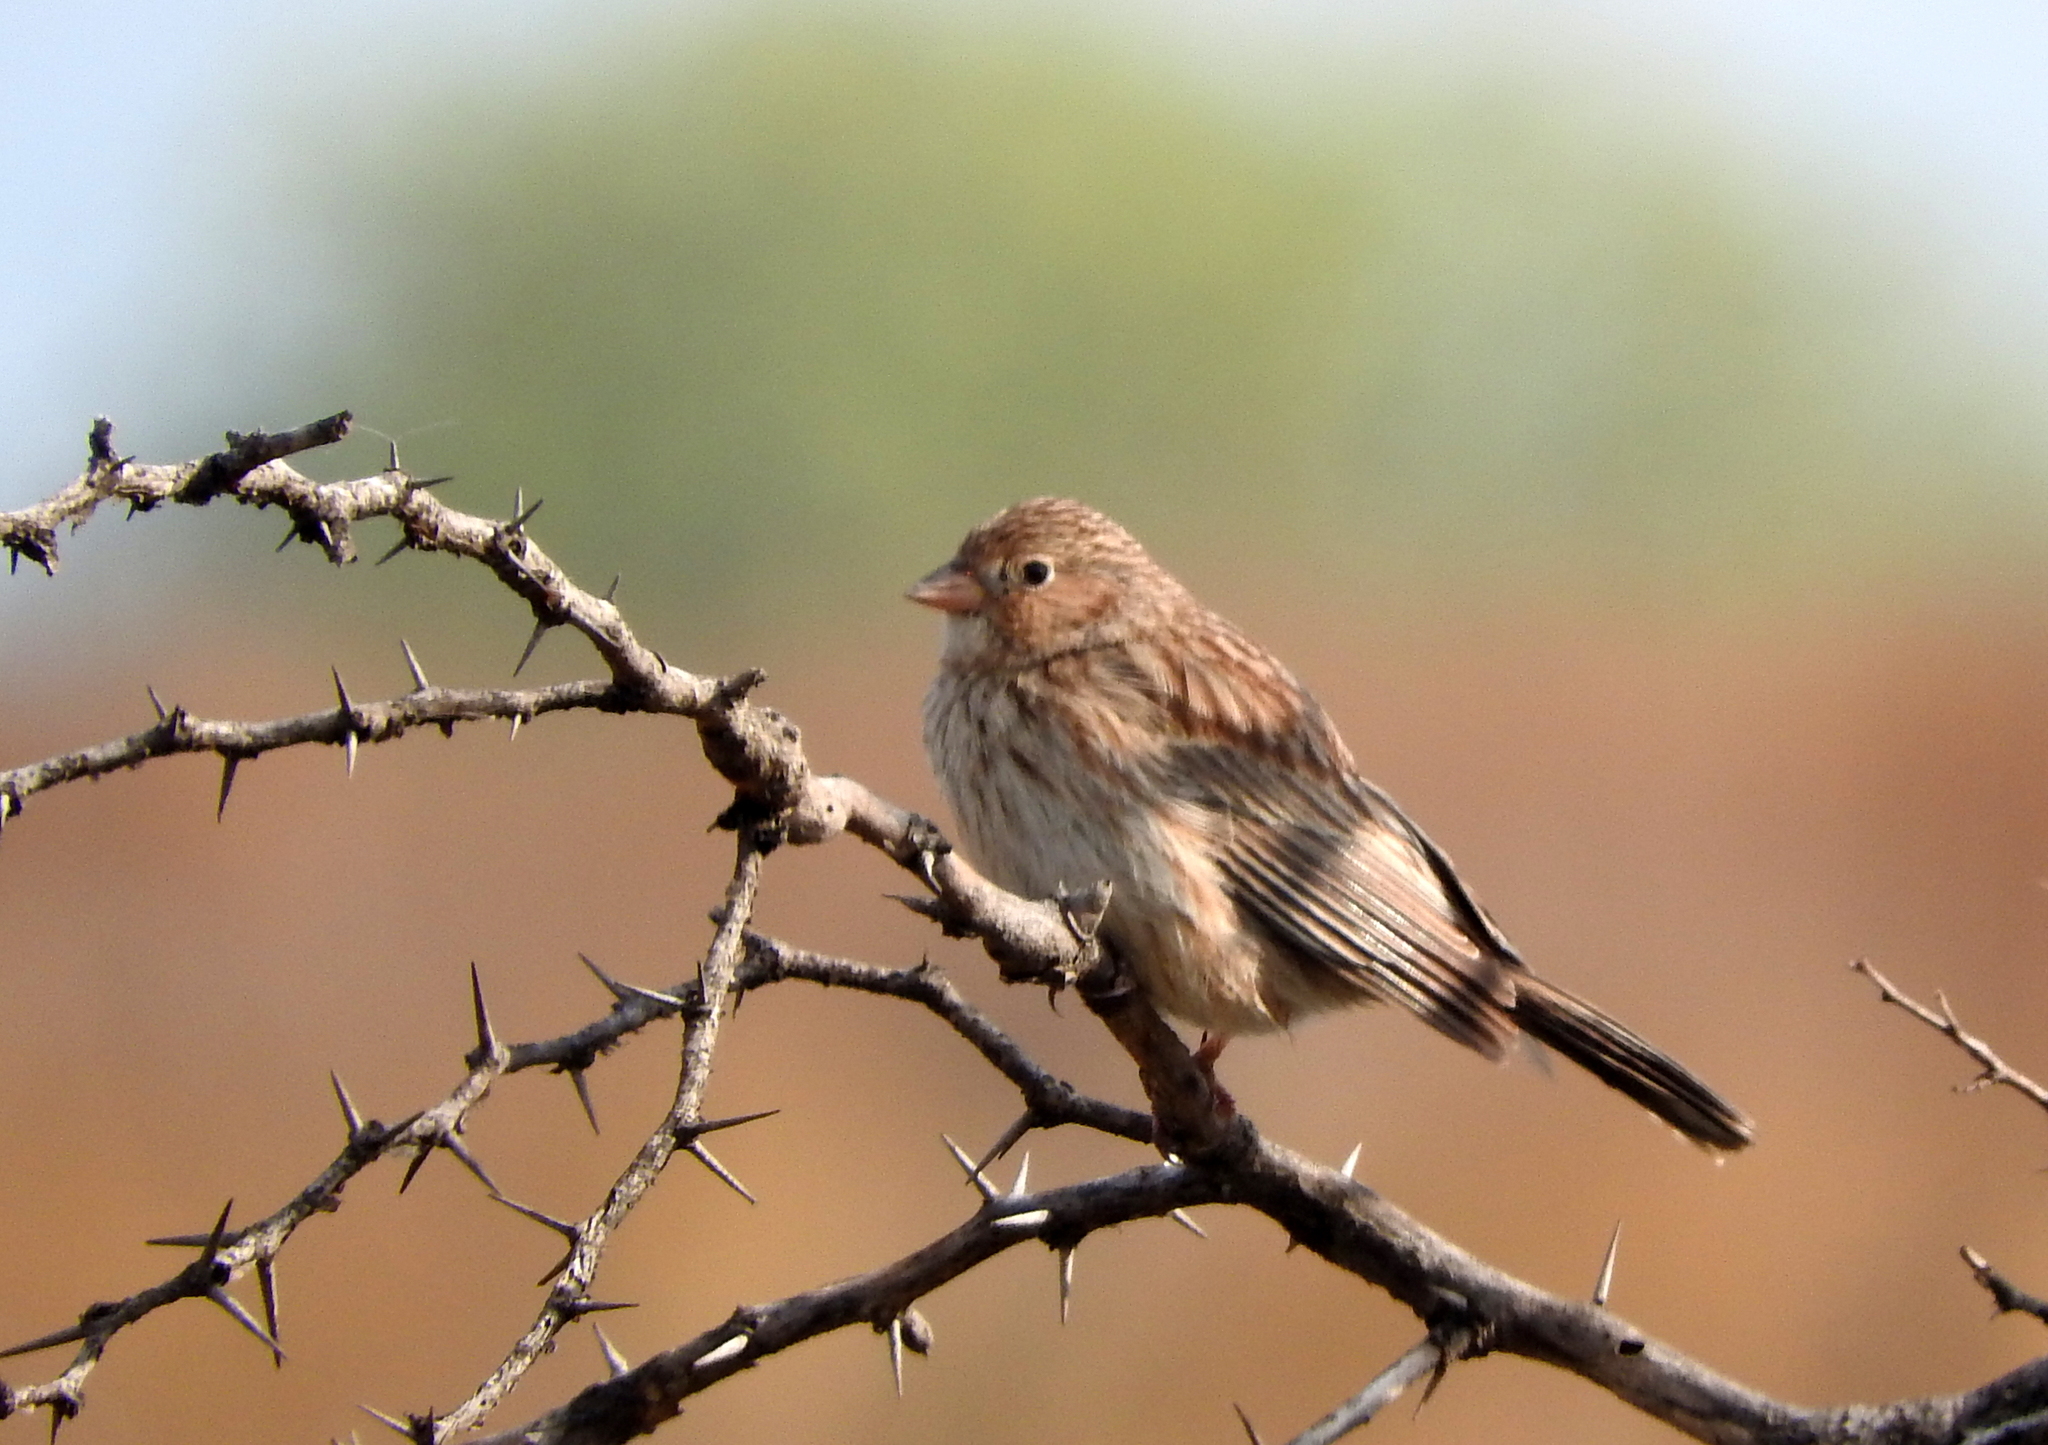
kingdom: Animalia
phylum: Chordata
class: Aves
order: Passeriformes
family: Thraupidae
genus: Porphyrospiza
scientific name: Porphyrospiza carbonaria
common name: Carbon finch
